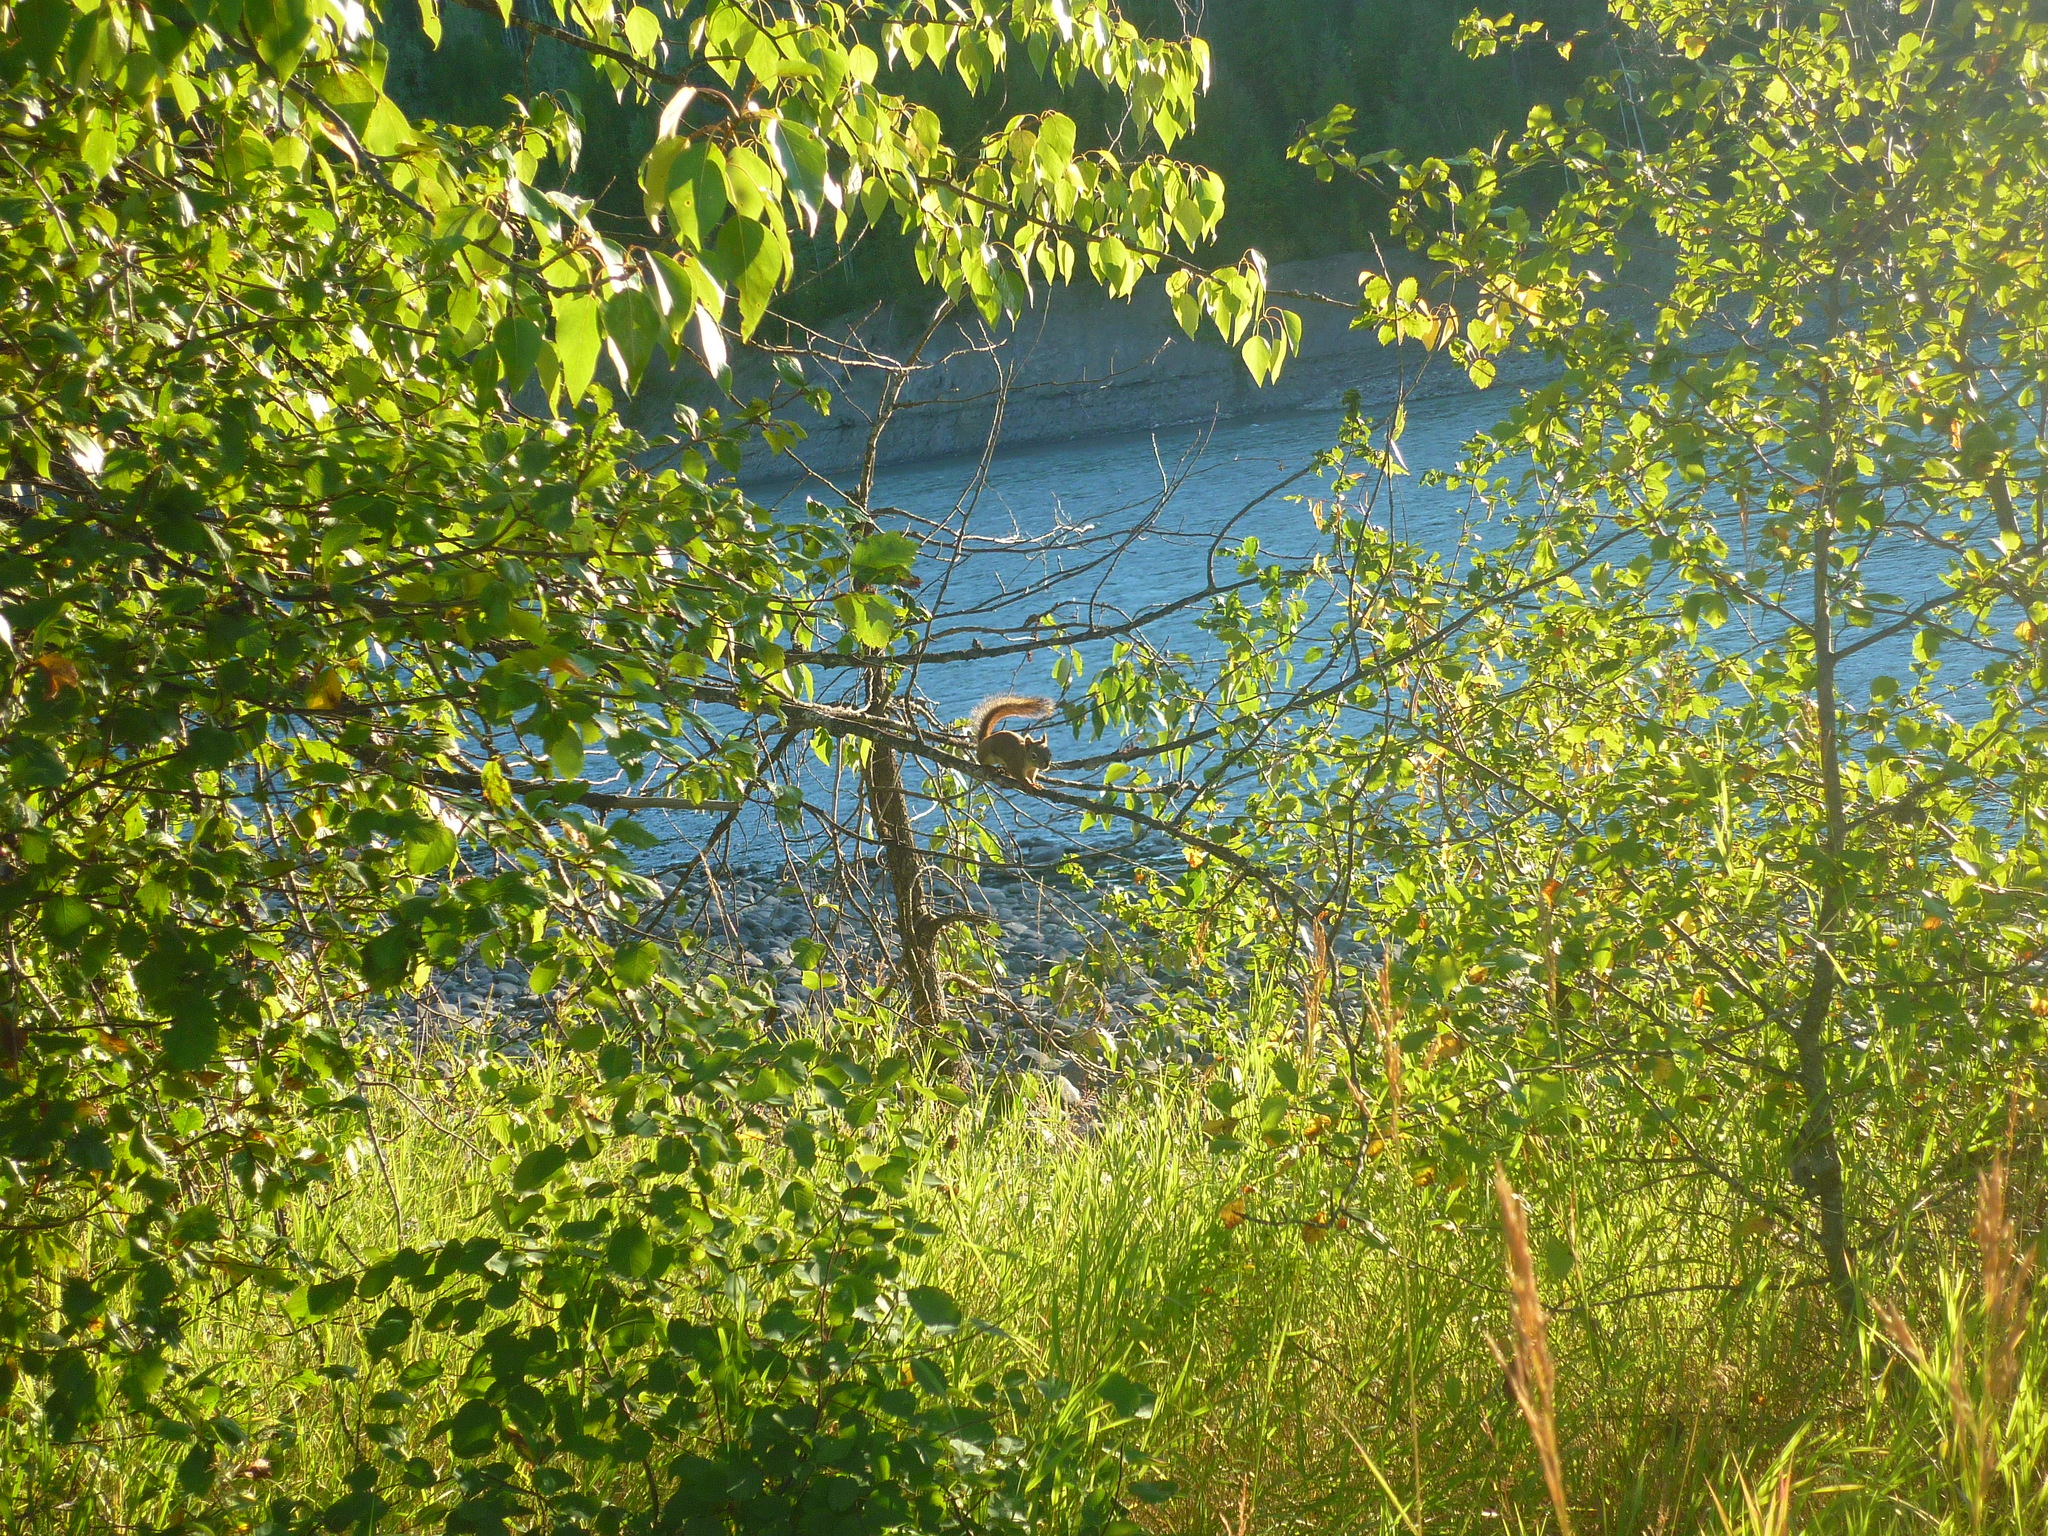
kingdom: Animalia
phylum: Chordata
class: Mammalia
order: Rodentia
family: Sciuridae
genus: Tamiasciurus
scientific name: Tamiasciurus hudsonicus
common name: Red squirrel
